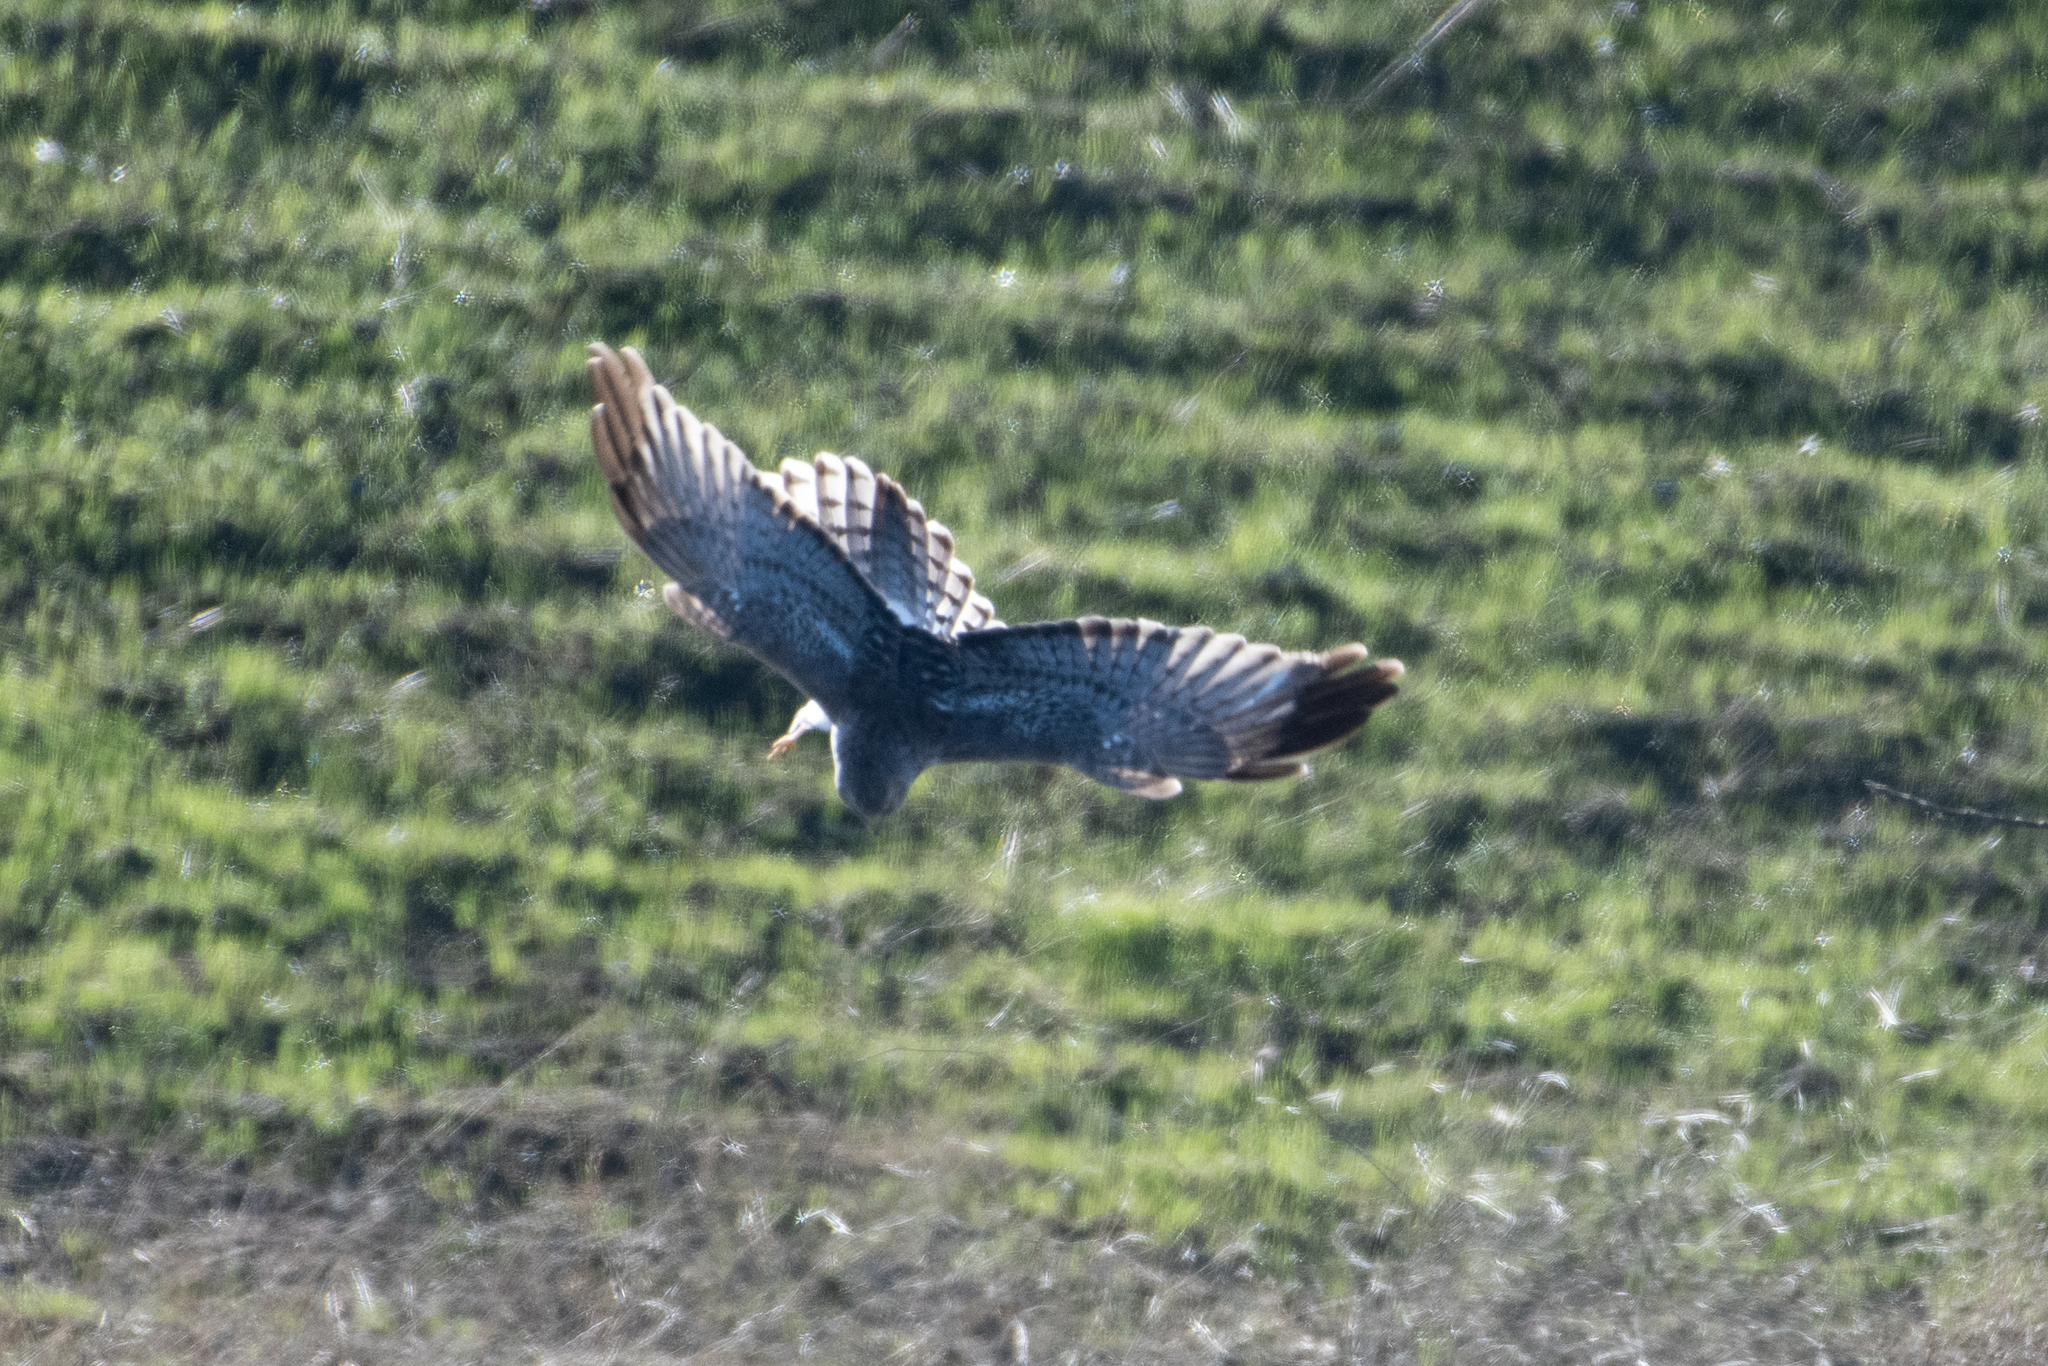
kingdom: Animalia
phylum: Chordata
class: Aves
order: Accipitriformes
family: Accipitridae
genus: Circus
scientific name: Circus cyaneus
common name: Hen harrier
